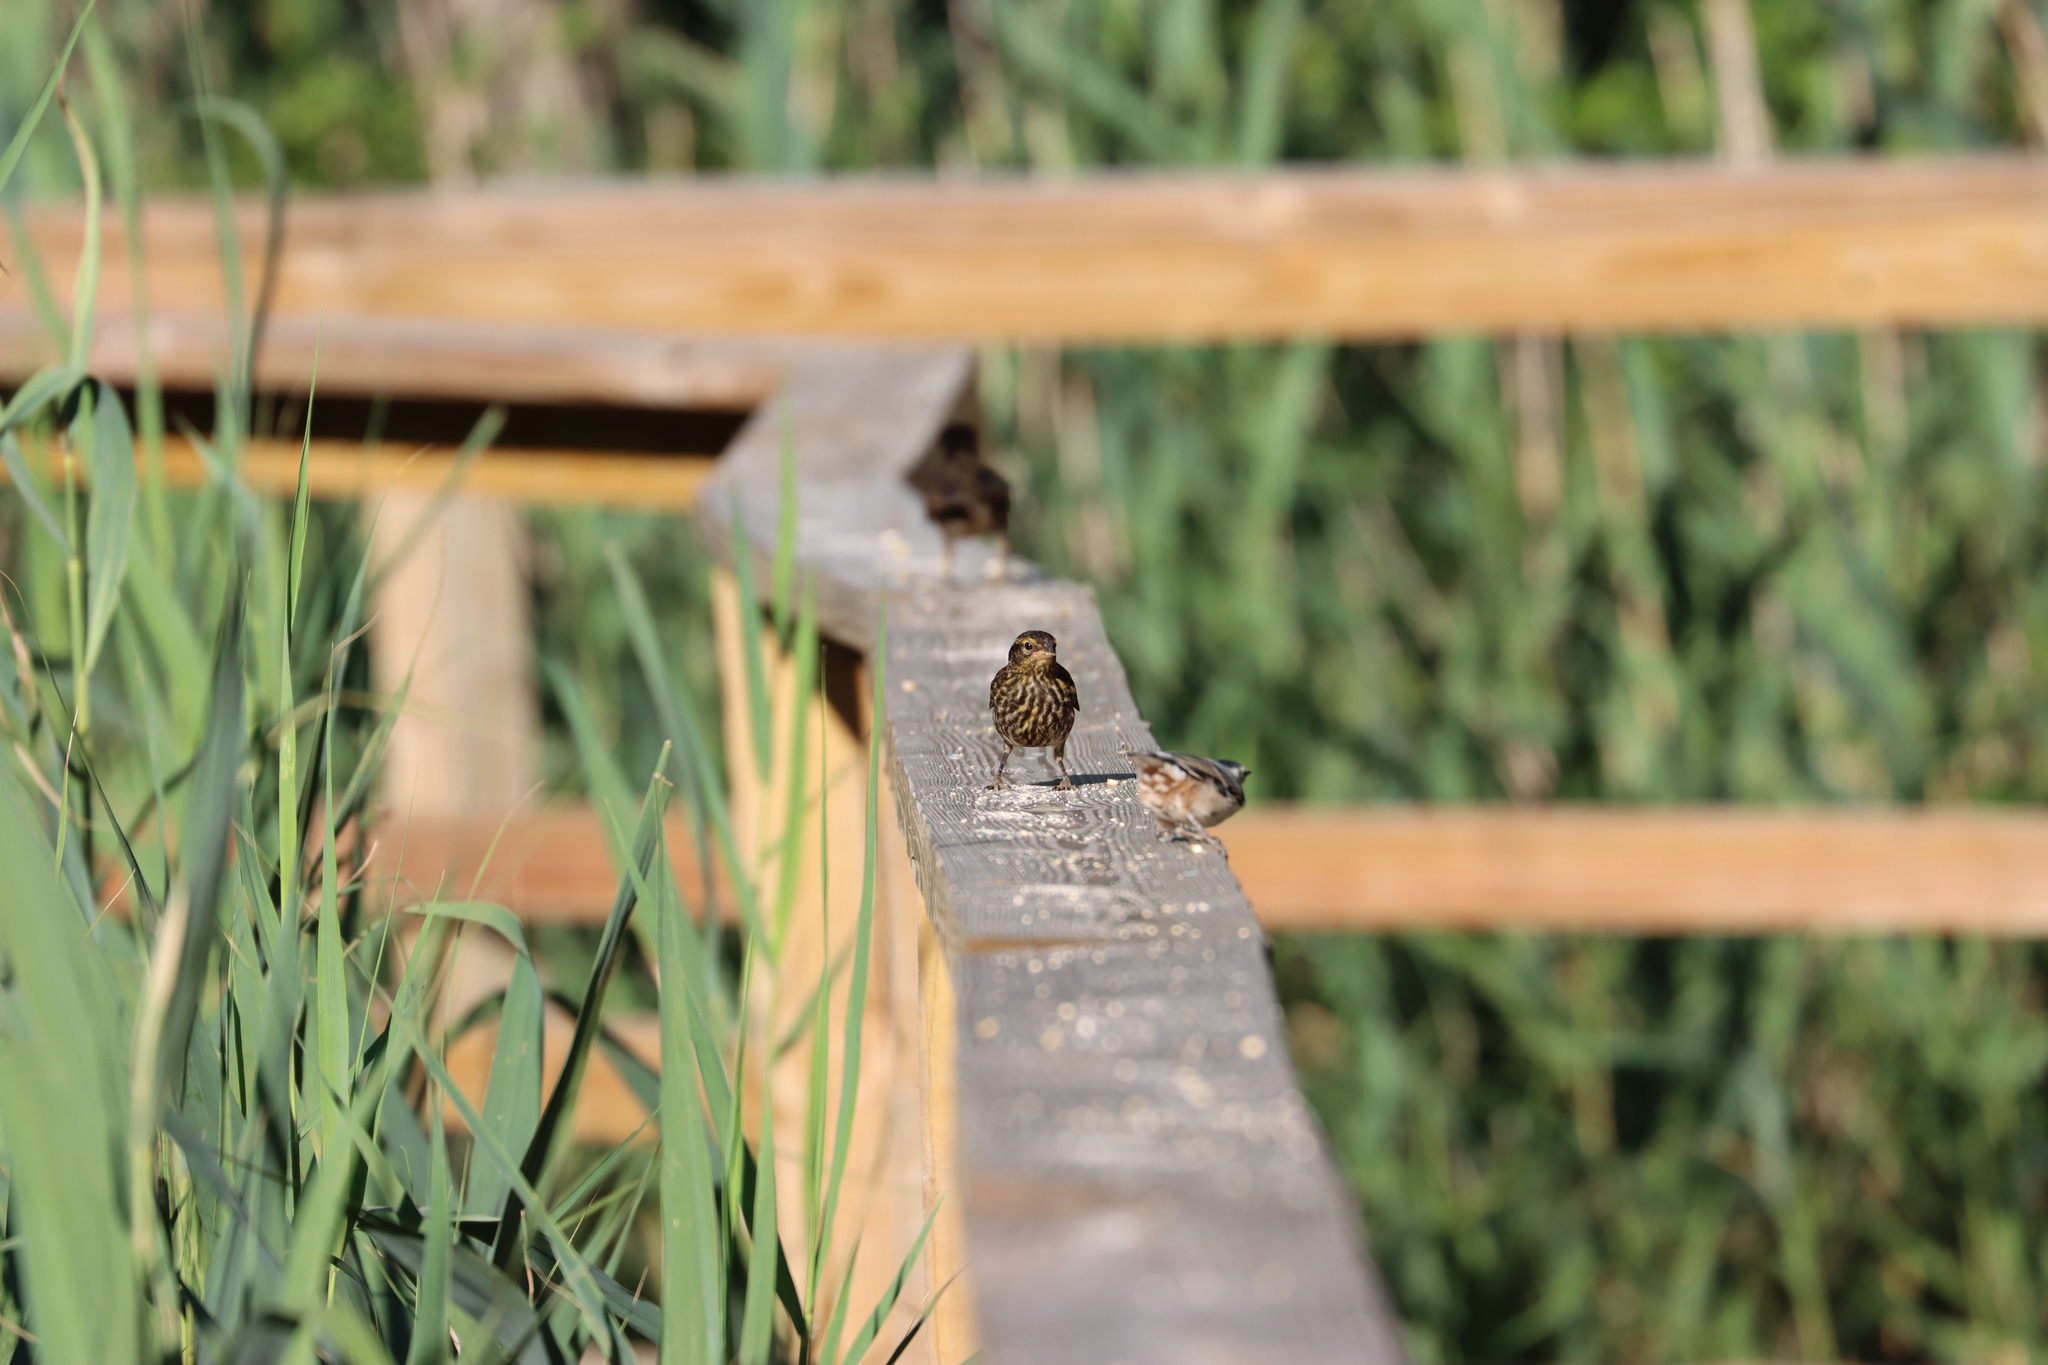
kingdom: Animalia
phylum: Chordata
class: Aves
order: Passeriformes
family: Icteridae
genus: Agelaius
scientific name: Agelaius phoeniceus
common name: Red-winged blackbird
